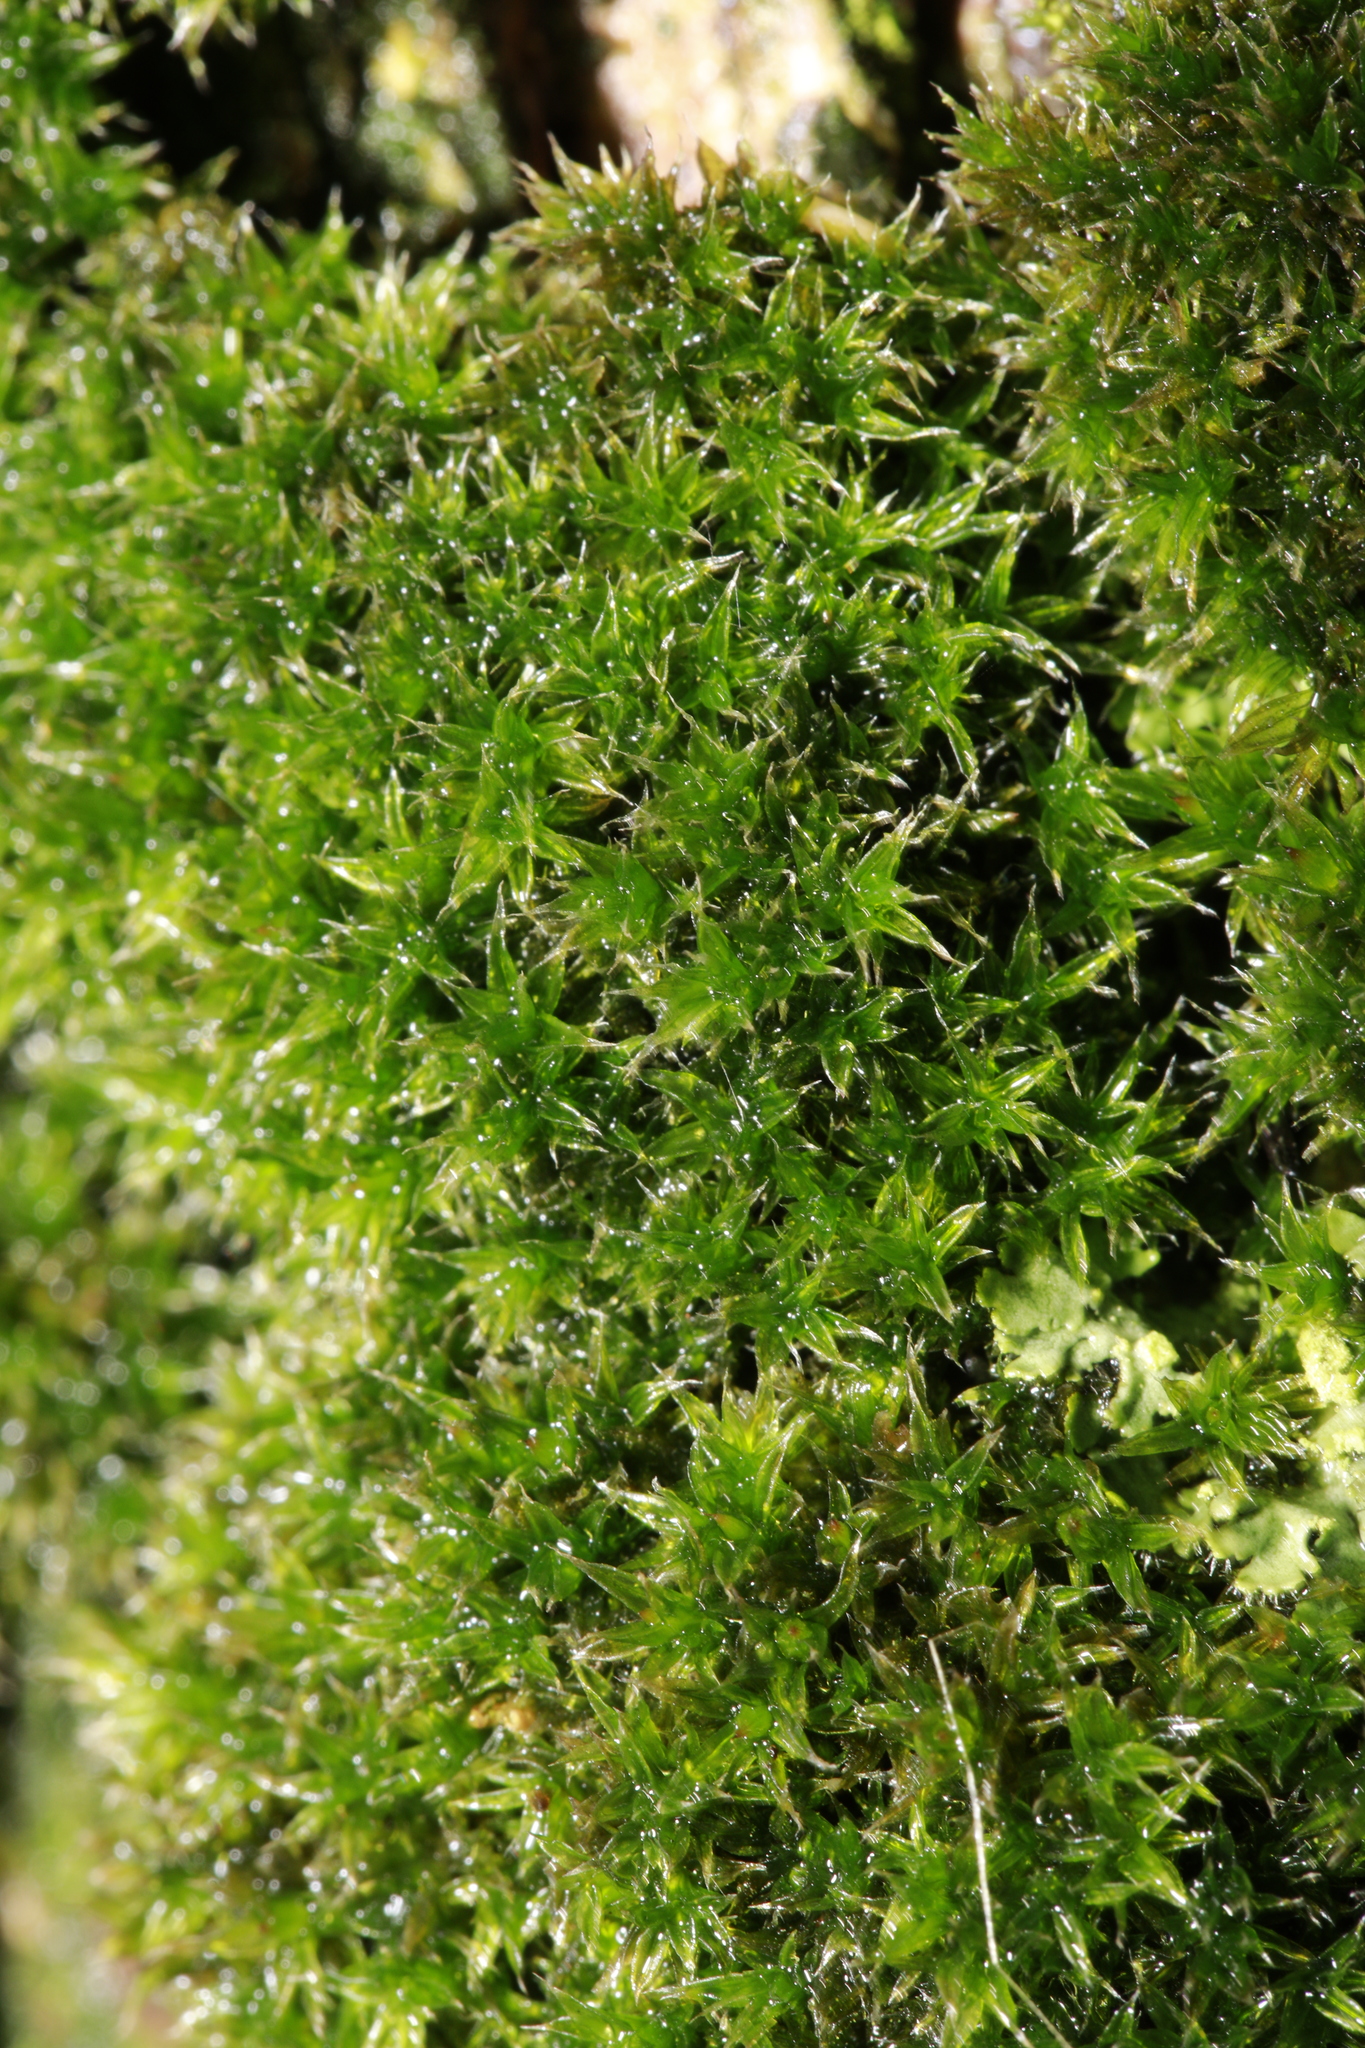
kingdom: Plantae
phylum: Bryophyta
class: Bryopsida
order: Orthotrichales
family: Orthotrichaceae
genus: Orthotrichum
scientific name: Orthotrichum diaphanum
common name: White-tipped bristle-moss
